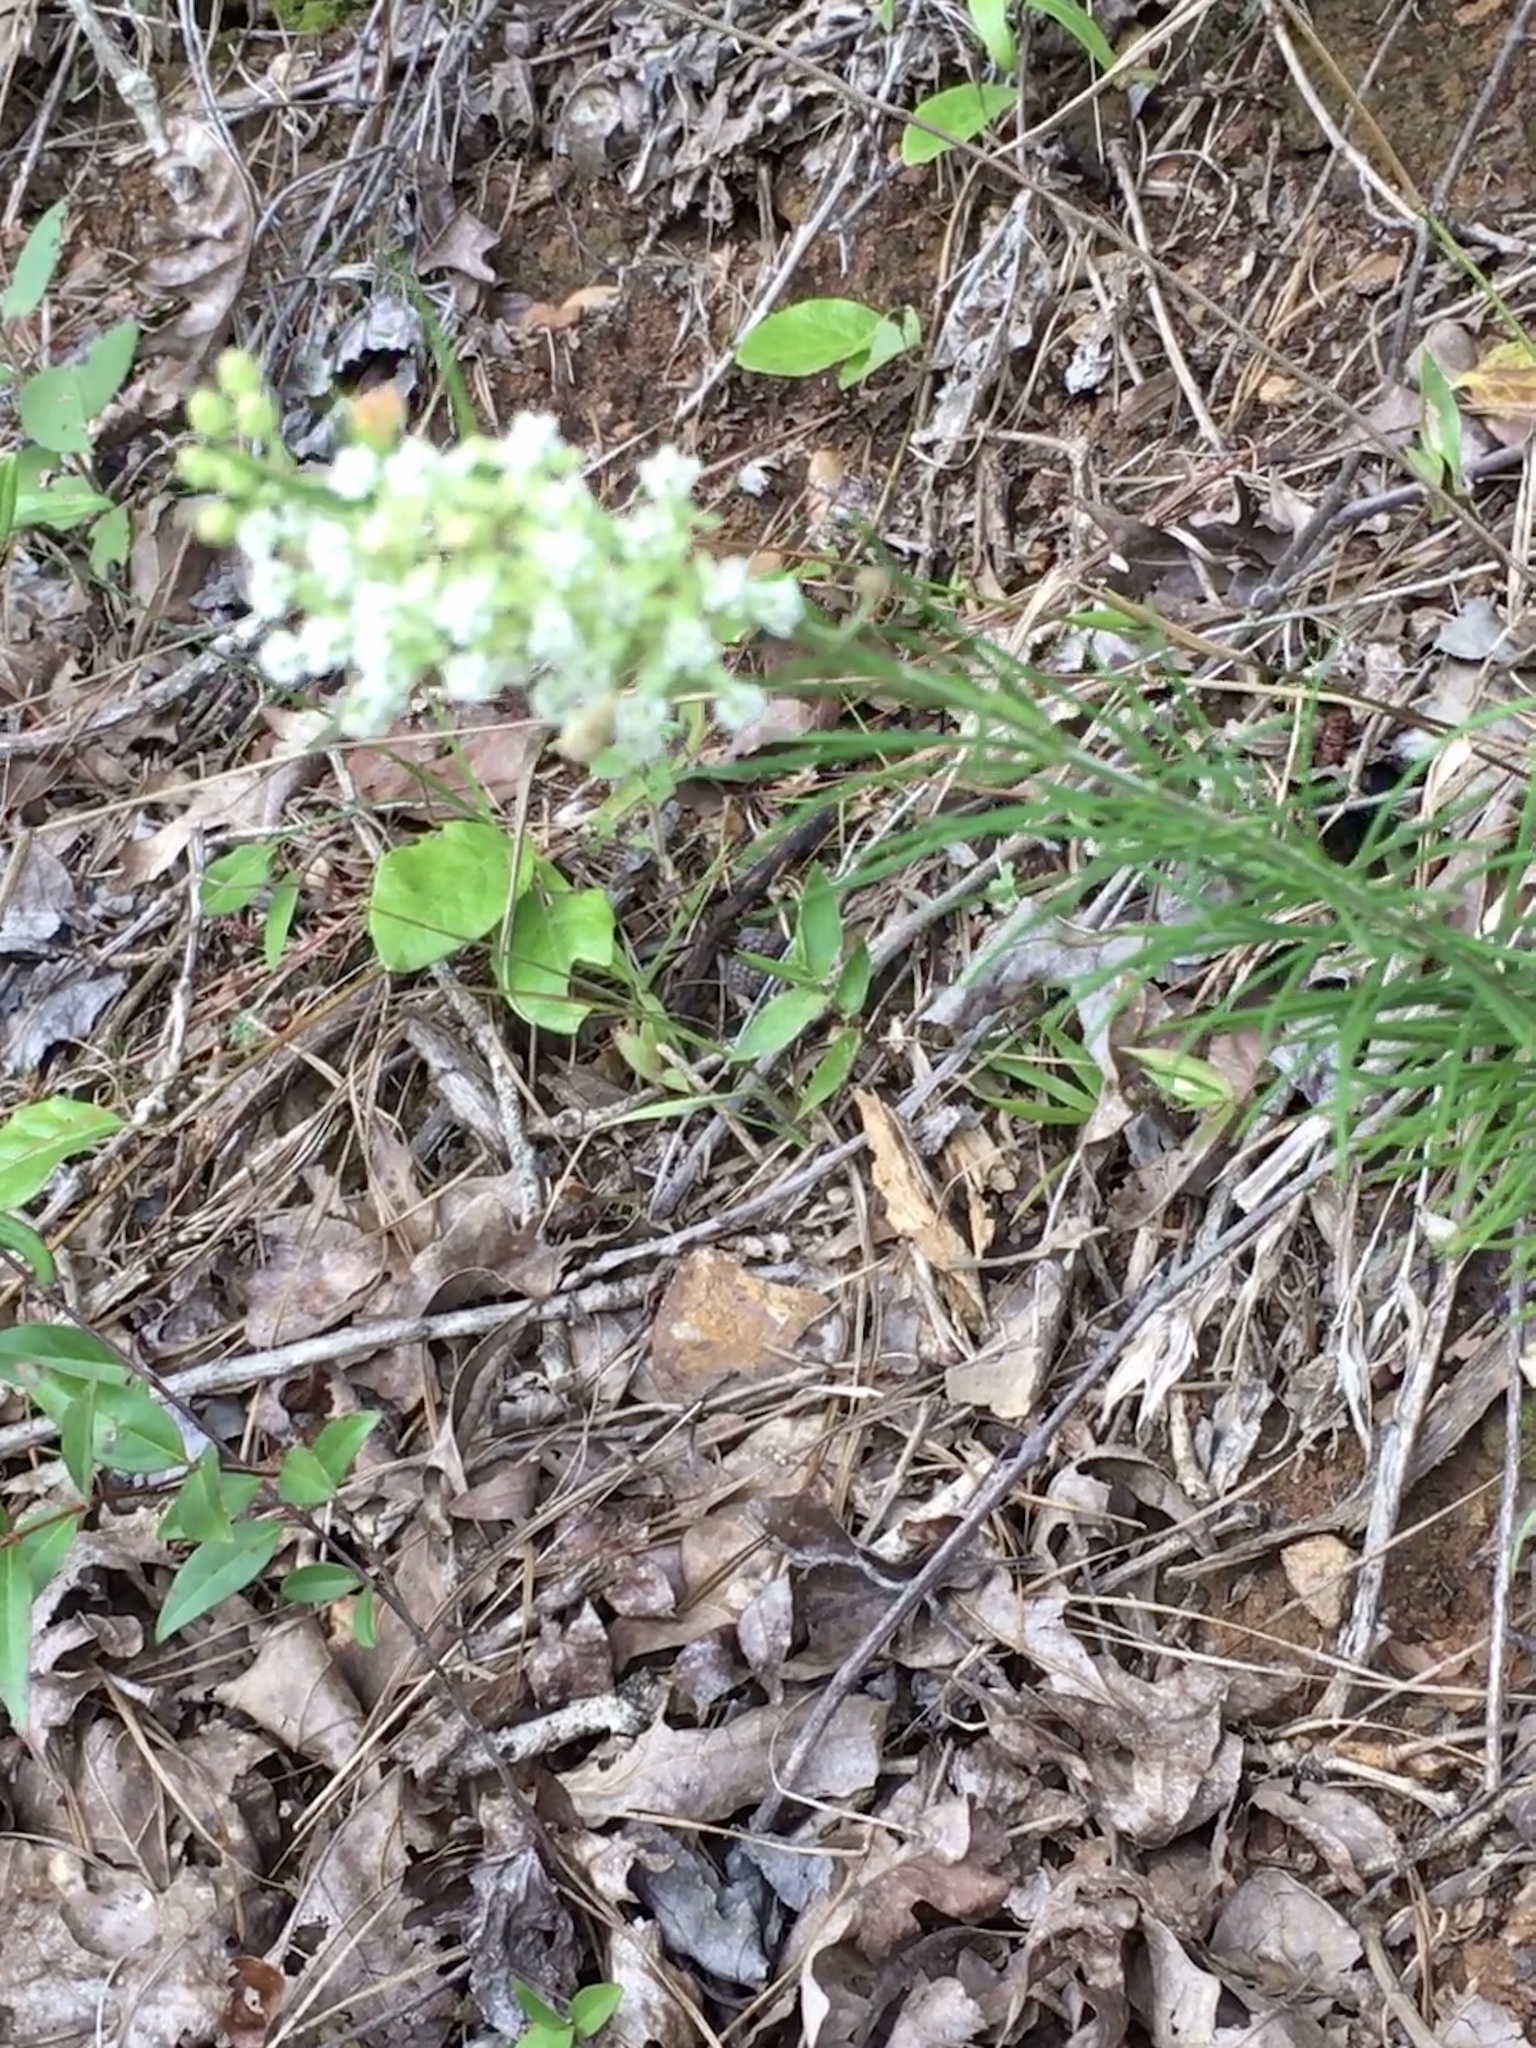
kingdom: Plantae
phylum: Tracheophyta
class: Magnoliopsida
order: Gentianales
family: Apocynaceae
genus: Asclepias
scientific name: Asclepias verticillata
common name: Eastern whorled milkweed
